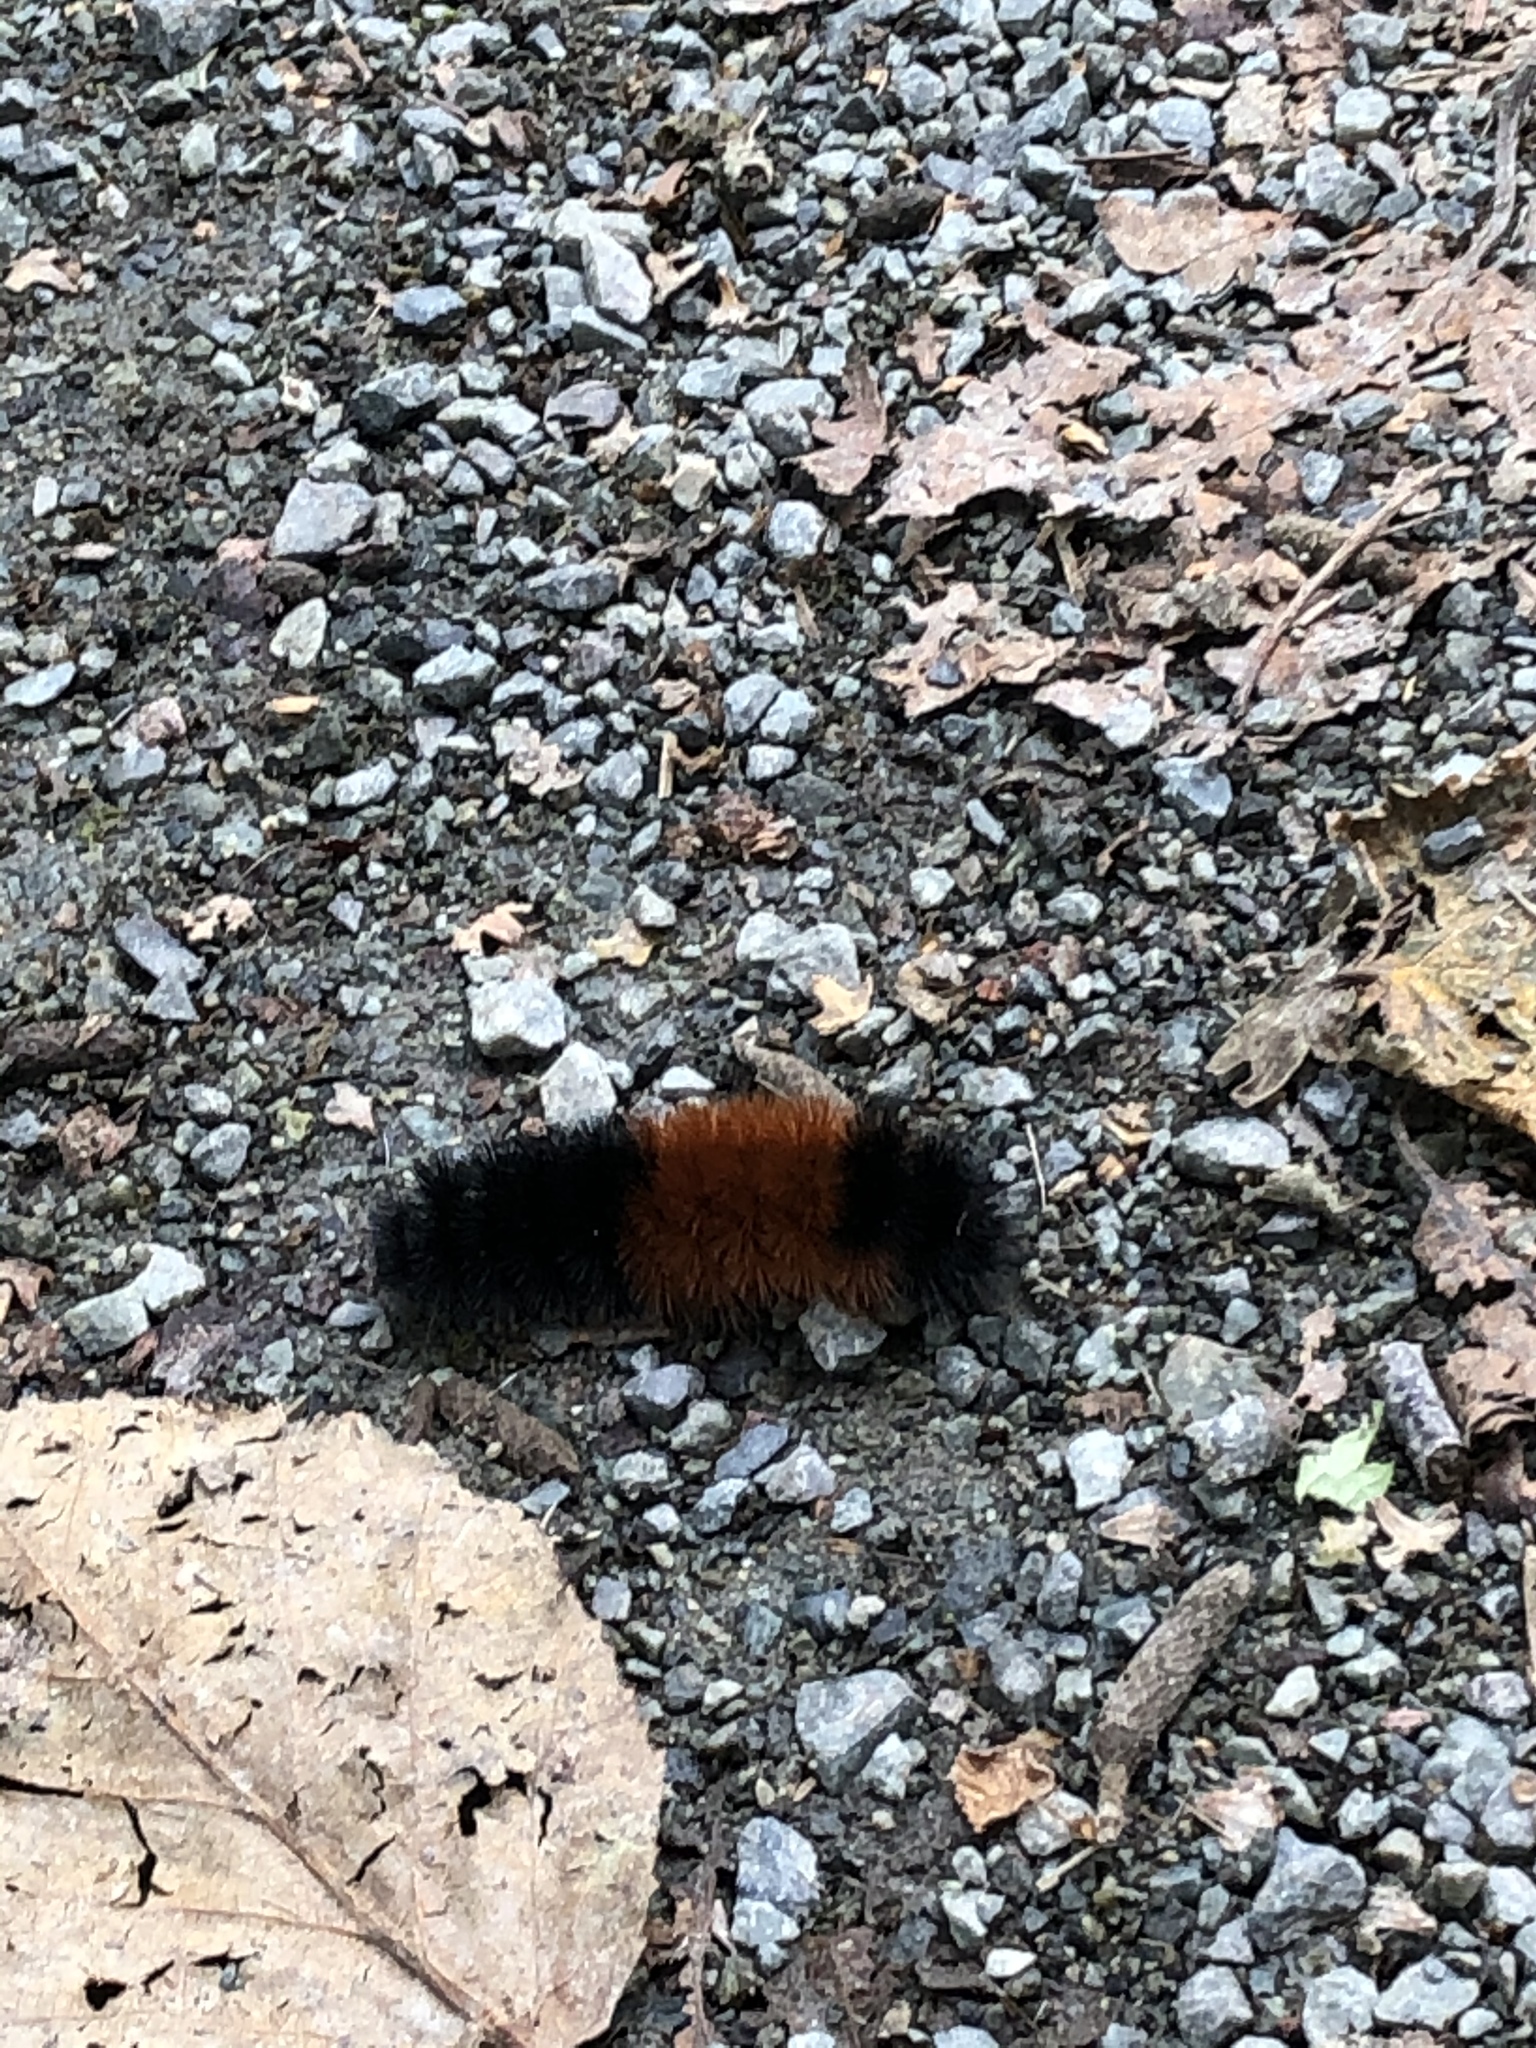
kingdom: Animalia
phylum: Arthropoda
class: Insecta
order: Lepidoptera
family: Erebidae
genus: Pyrrharctia
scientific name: Pyrrharctia isabella
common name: Isabella tiger moth
